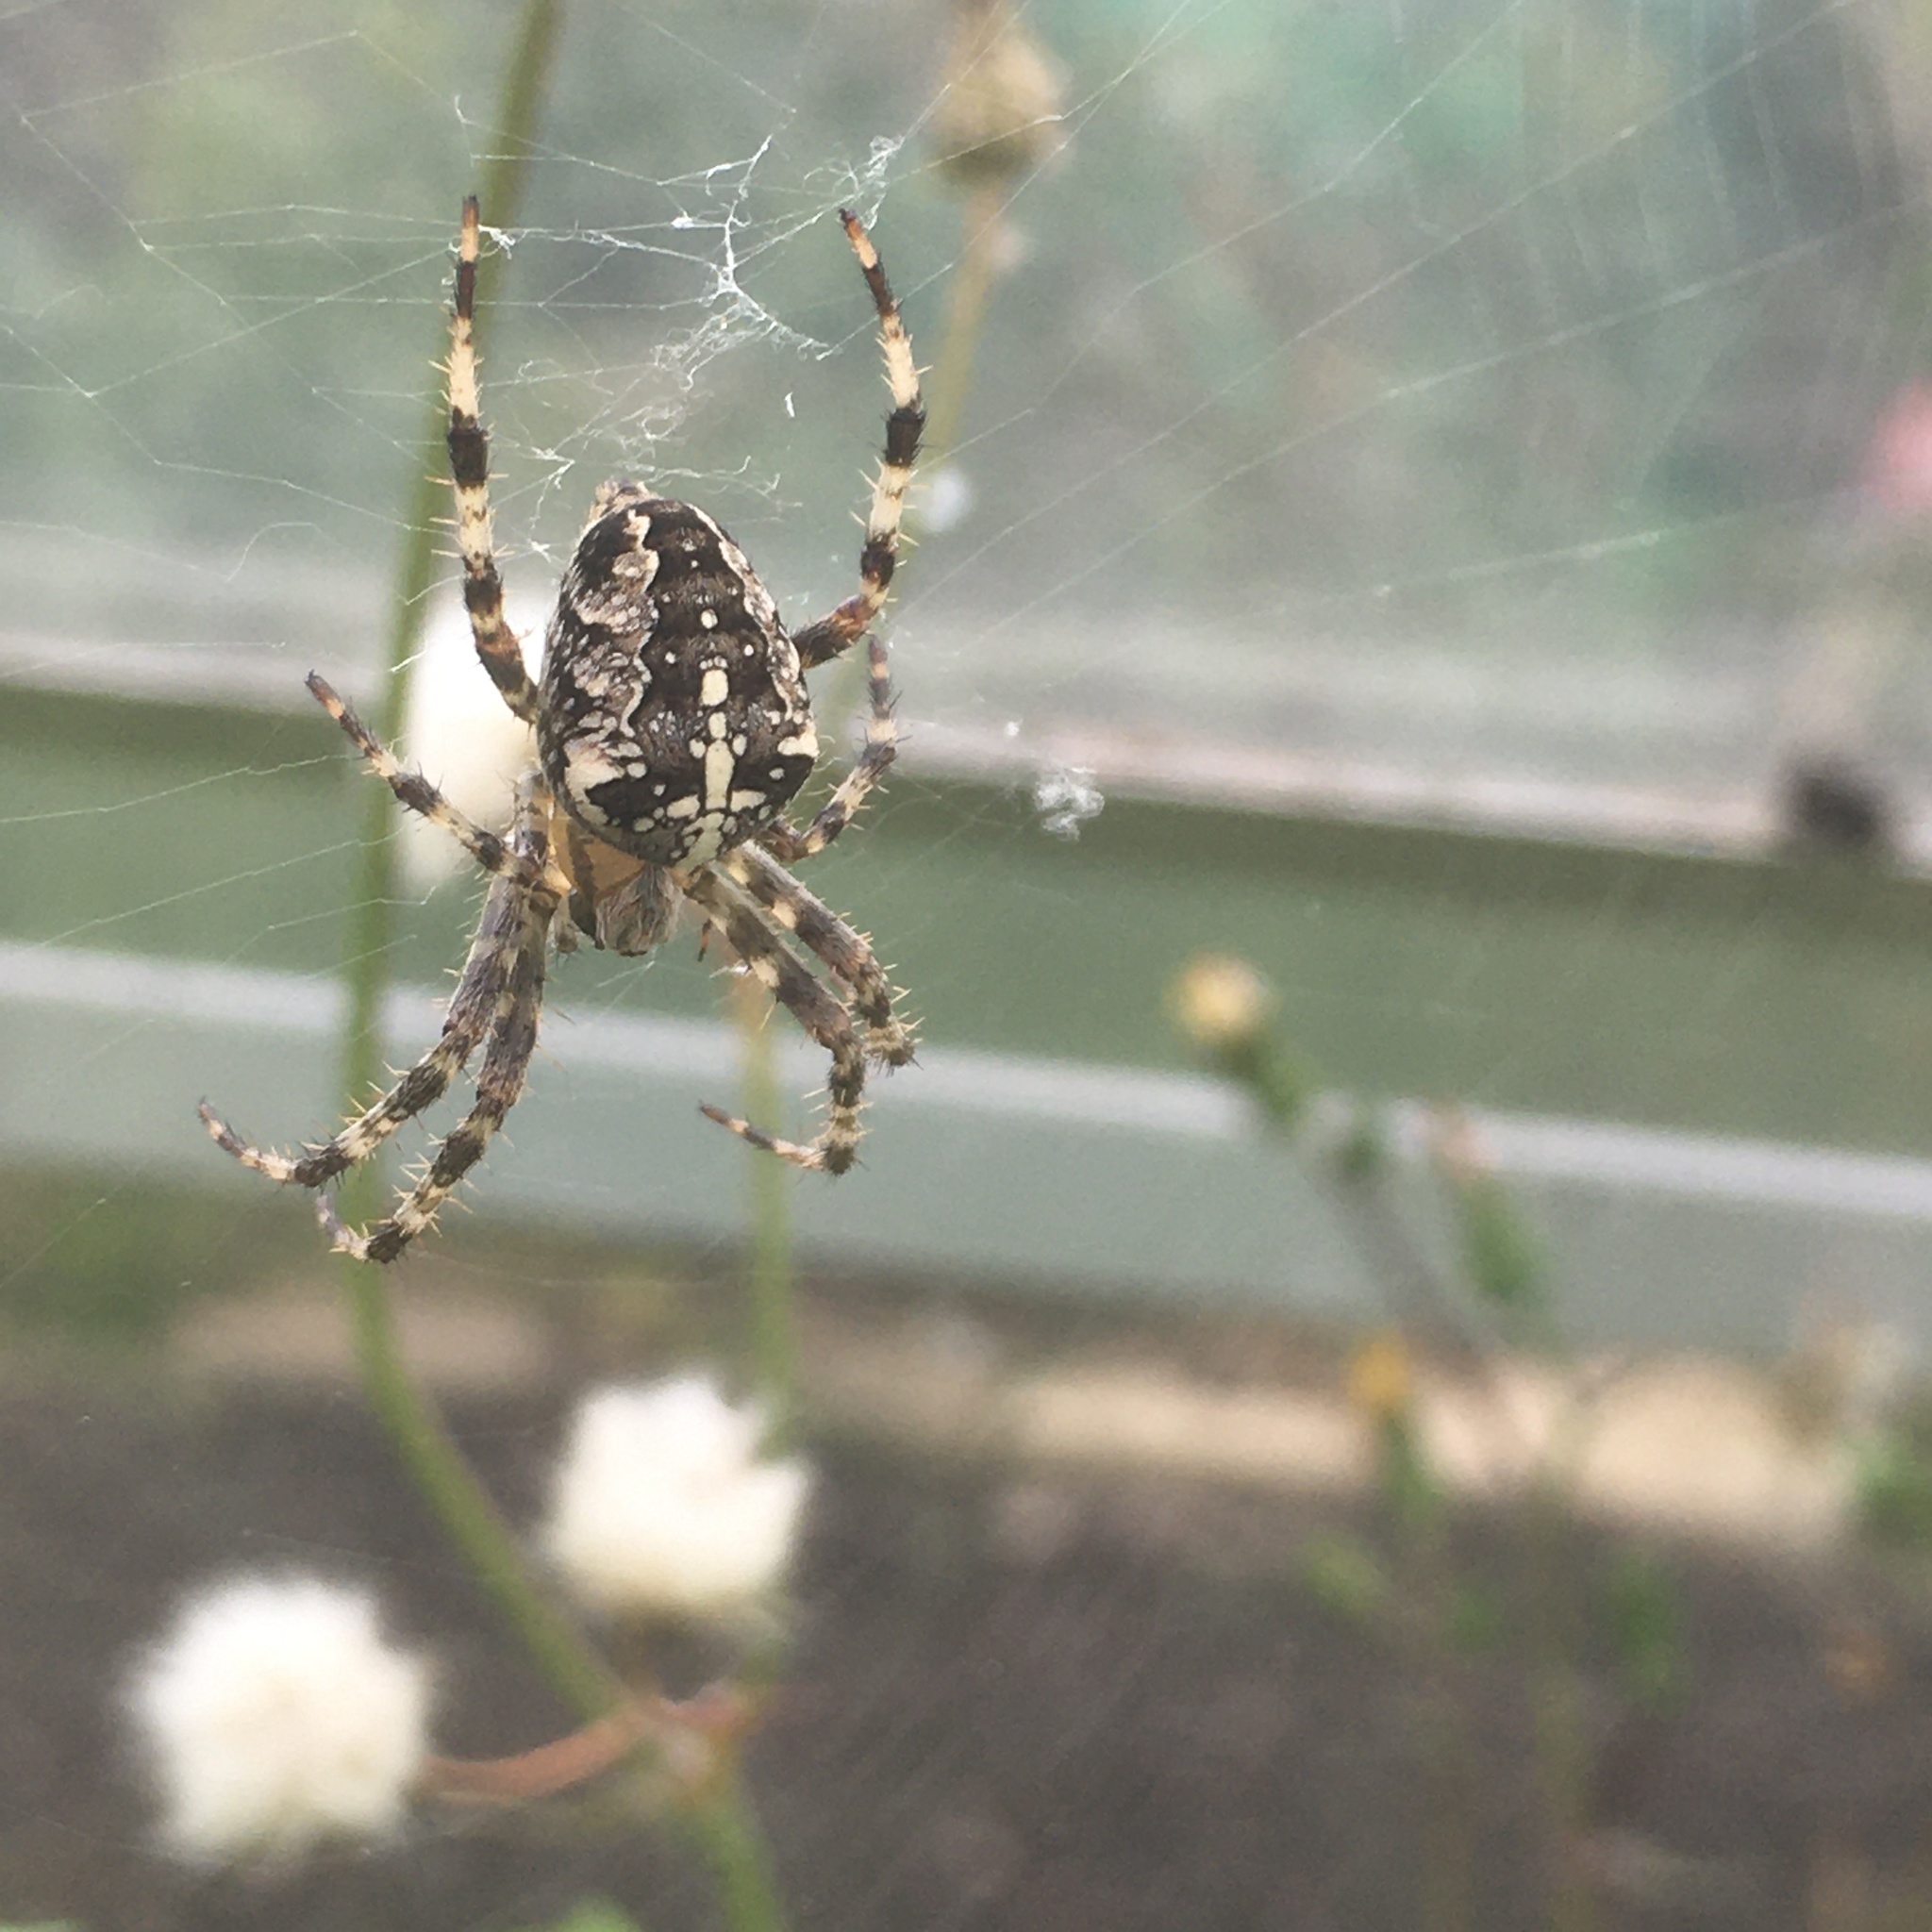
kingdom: Animalia
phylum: Arthropoda
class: Arachnida
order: Araneae
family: Araneidae
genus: Araneus
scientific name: Araneus diadematus
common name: Cross orbweaver
